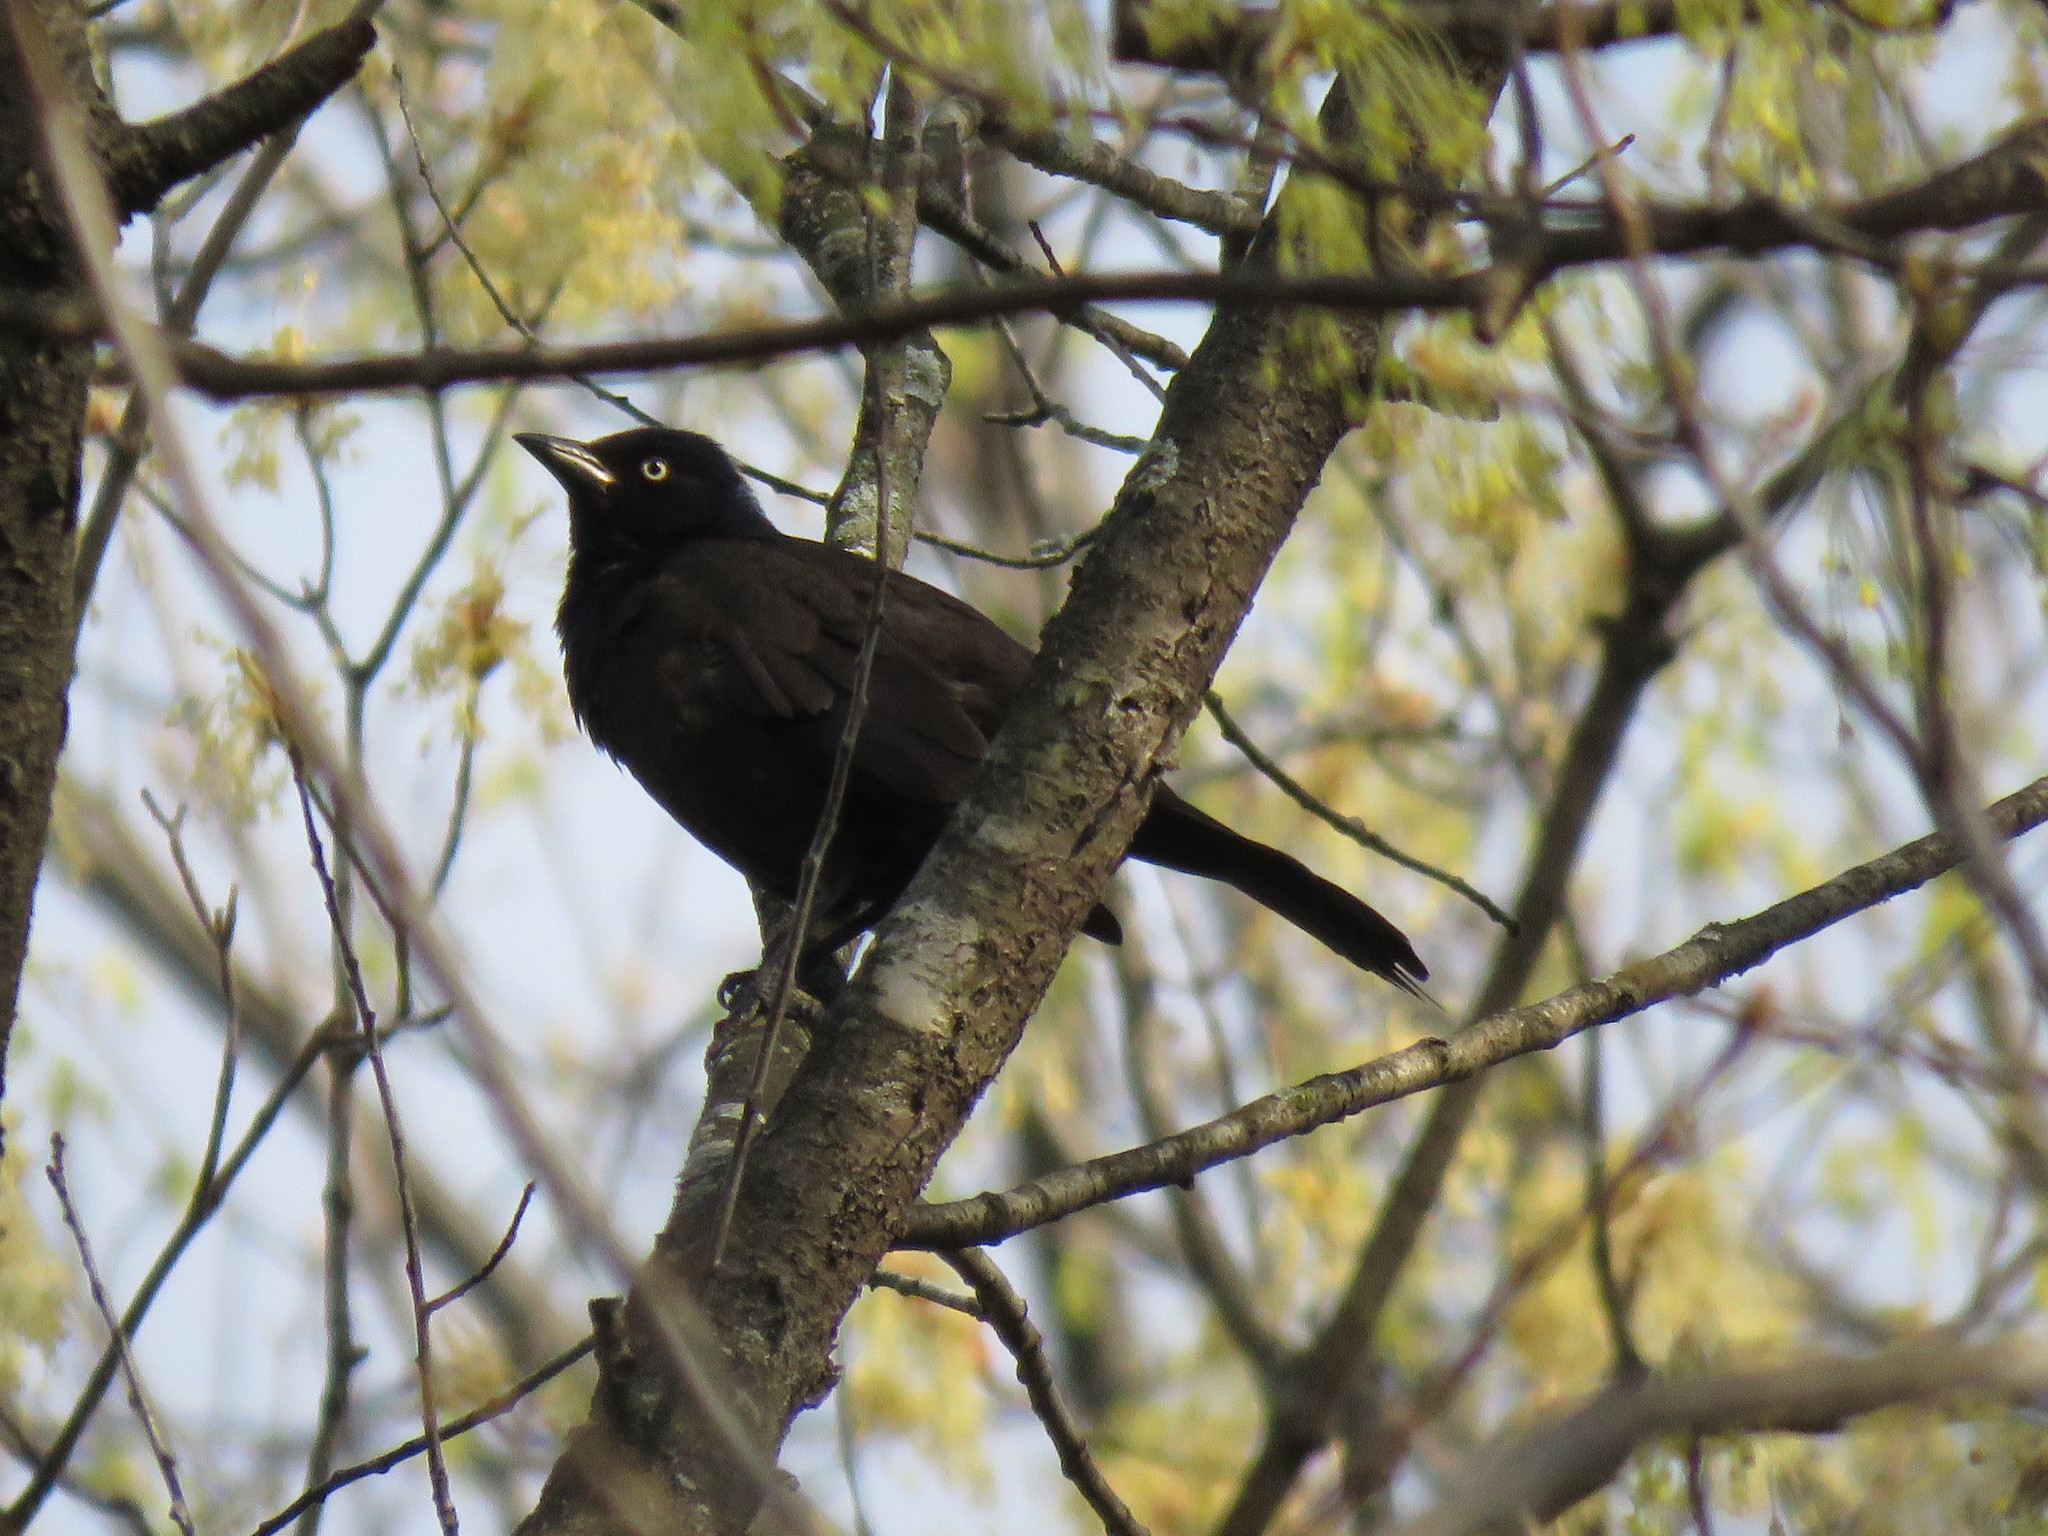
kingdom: Animalia
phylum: Chordata
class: Aves
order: Passeriformes
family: Icteridae
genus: Quiscalus
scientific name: Quiscalus quiscula
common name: Common grackle
